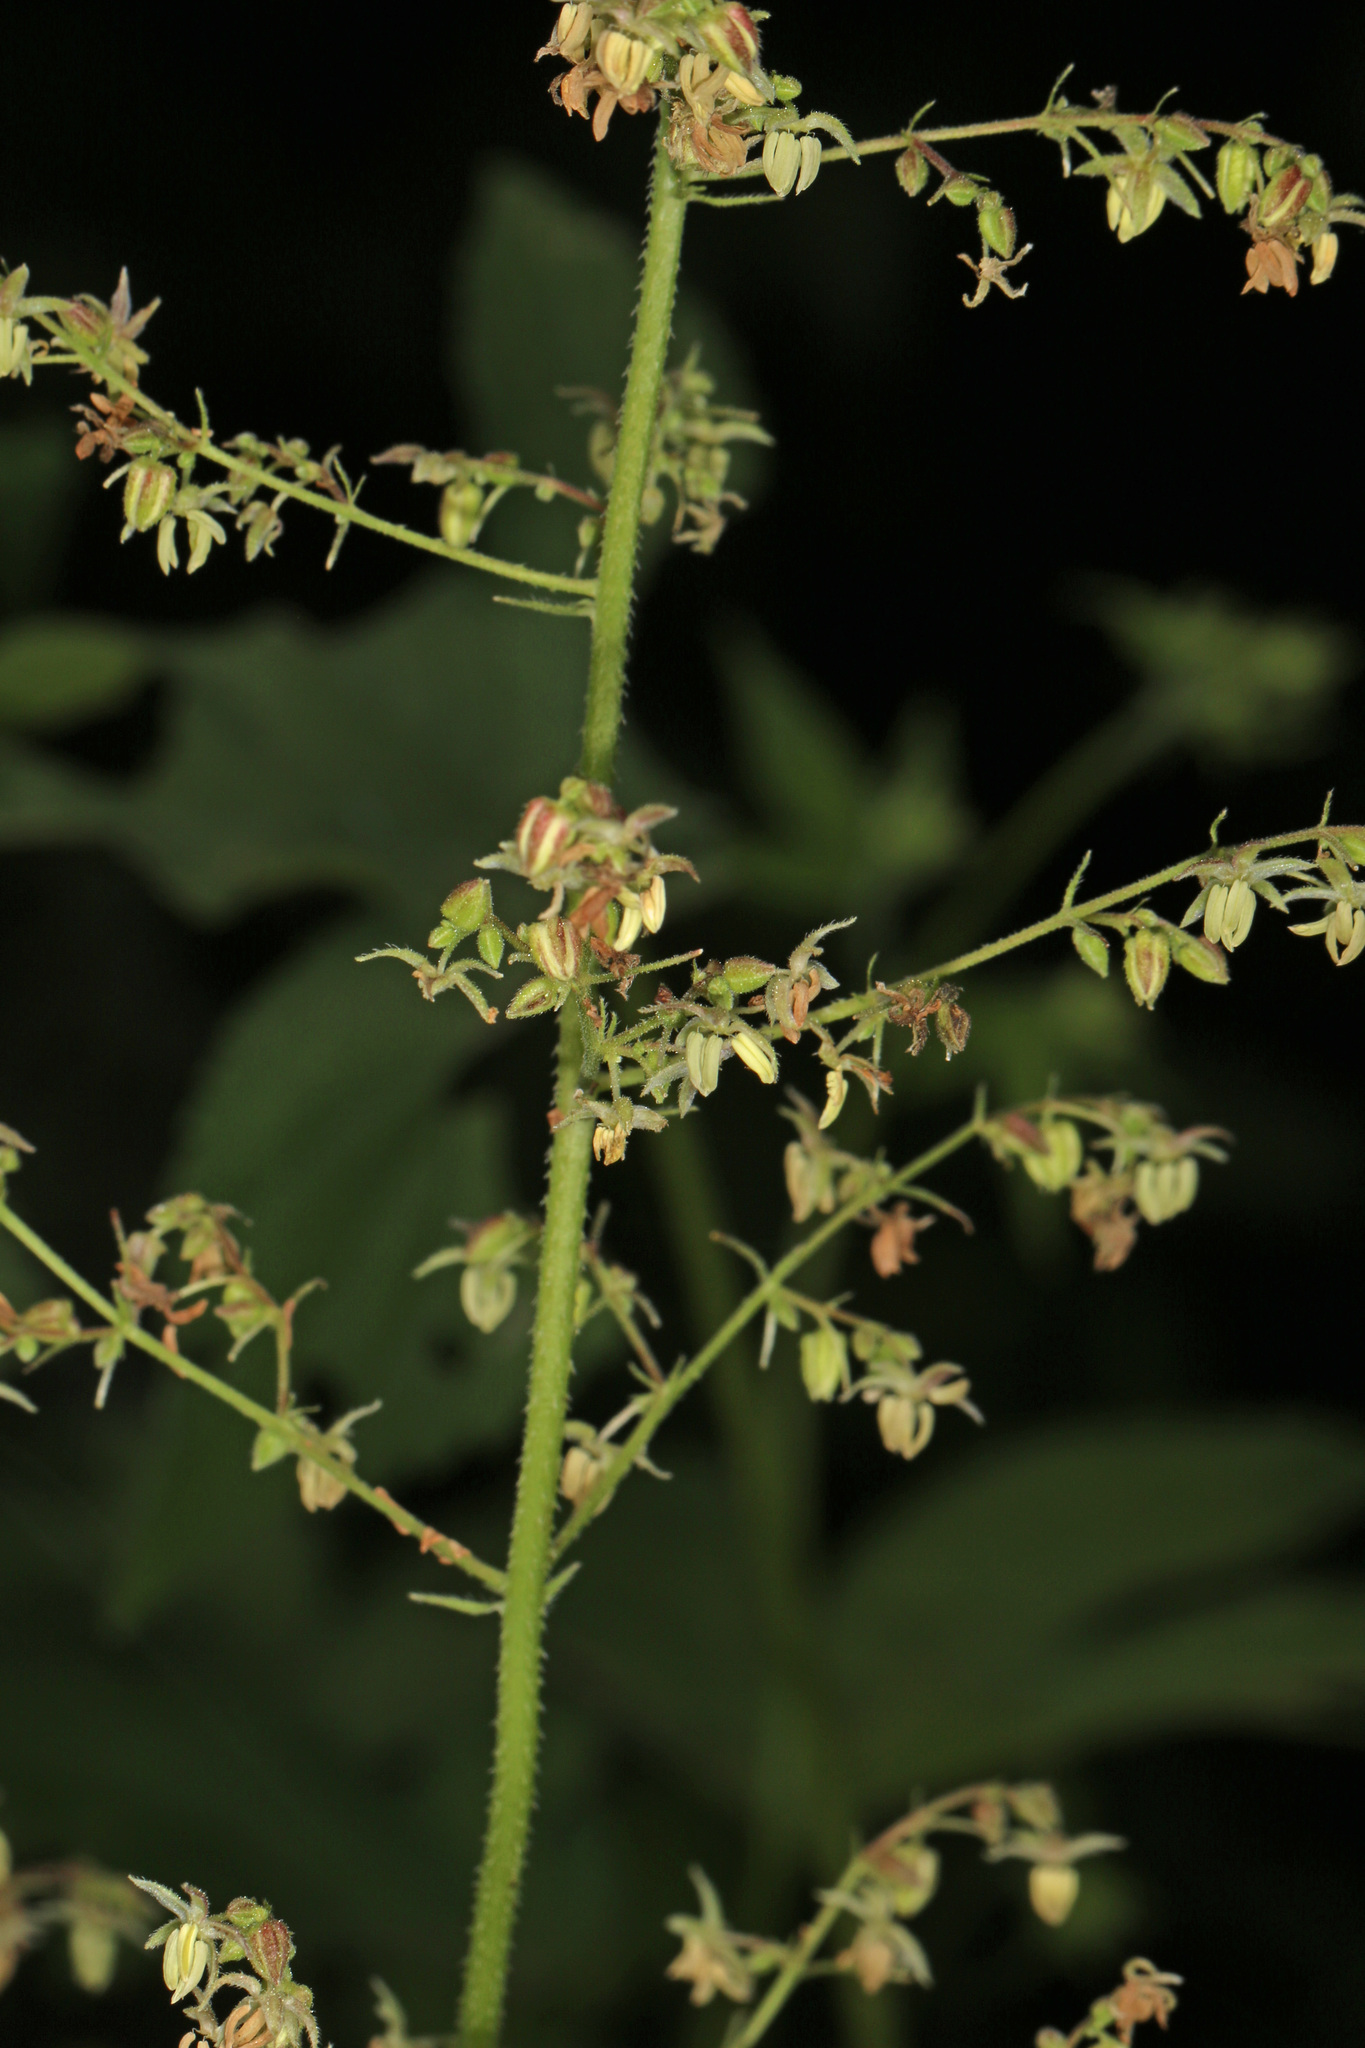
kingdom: Plantae
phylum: Tracheophyta
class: Magnoliopsida
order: Rosales
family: Cannabaceae
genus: Humulus
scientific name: Humulus scandens
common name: Japanese hop
